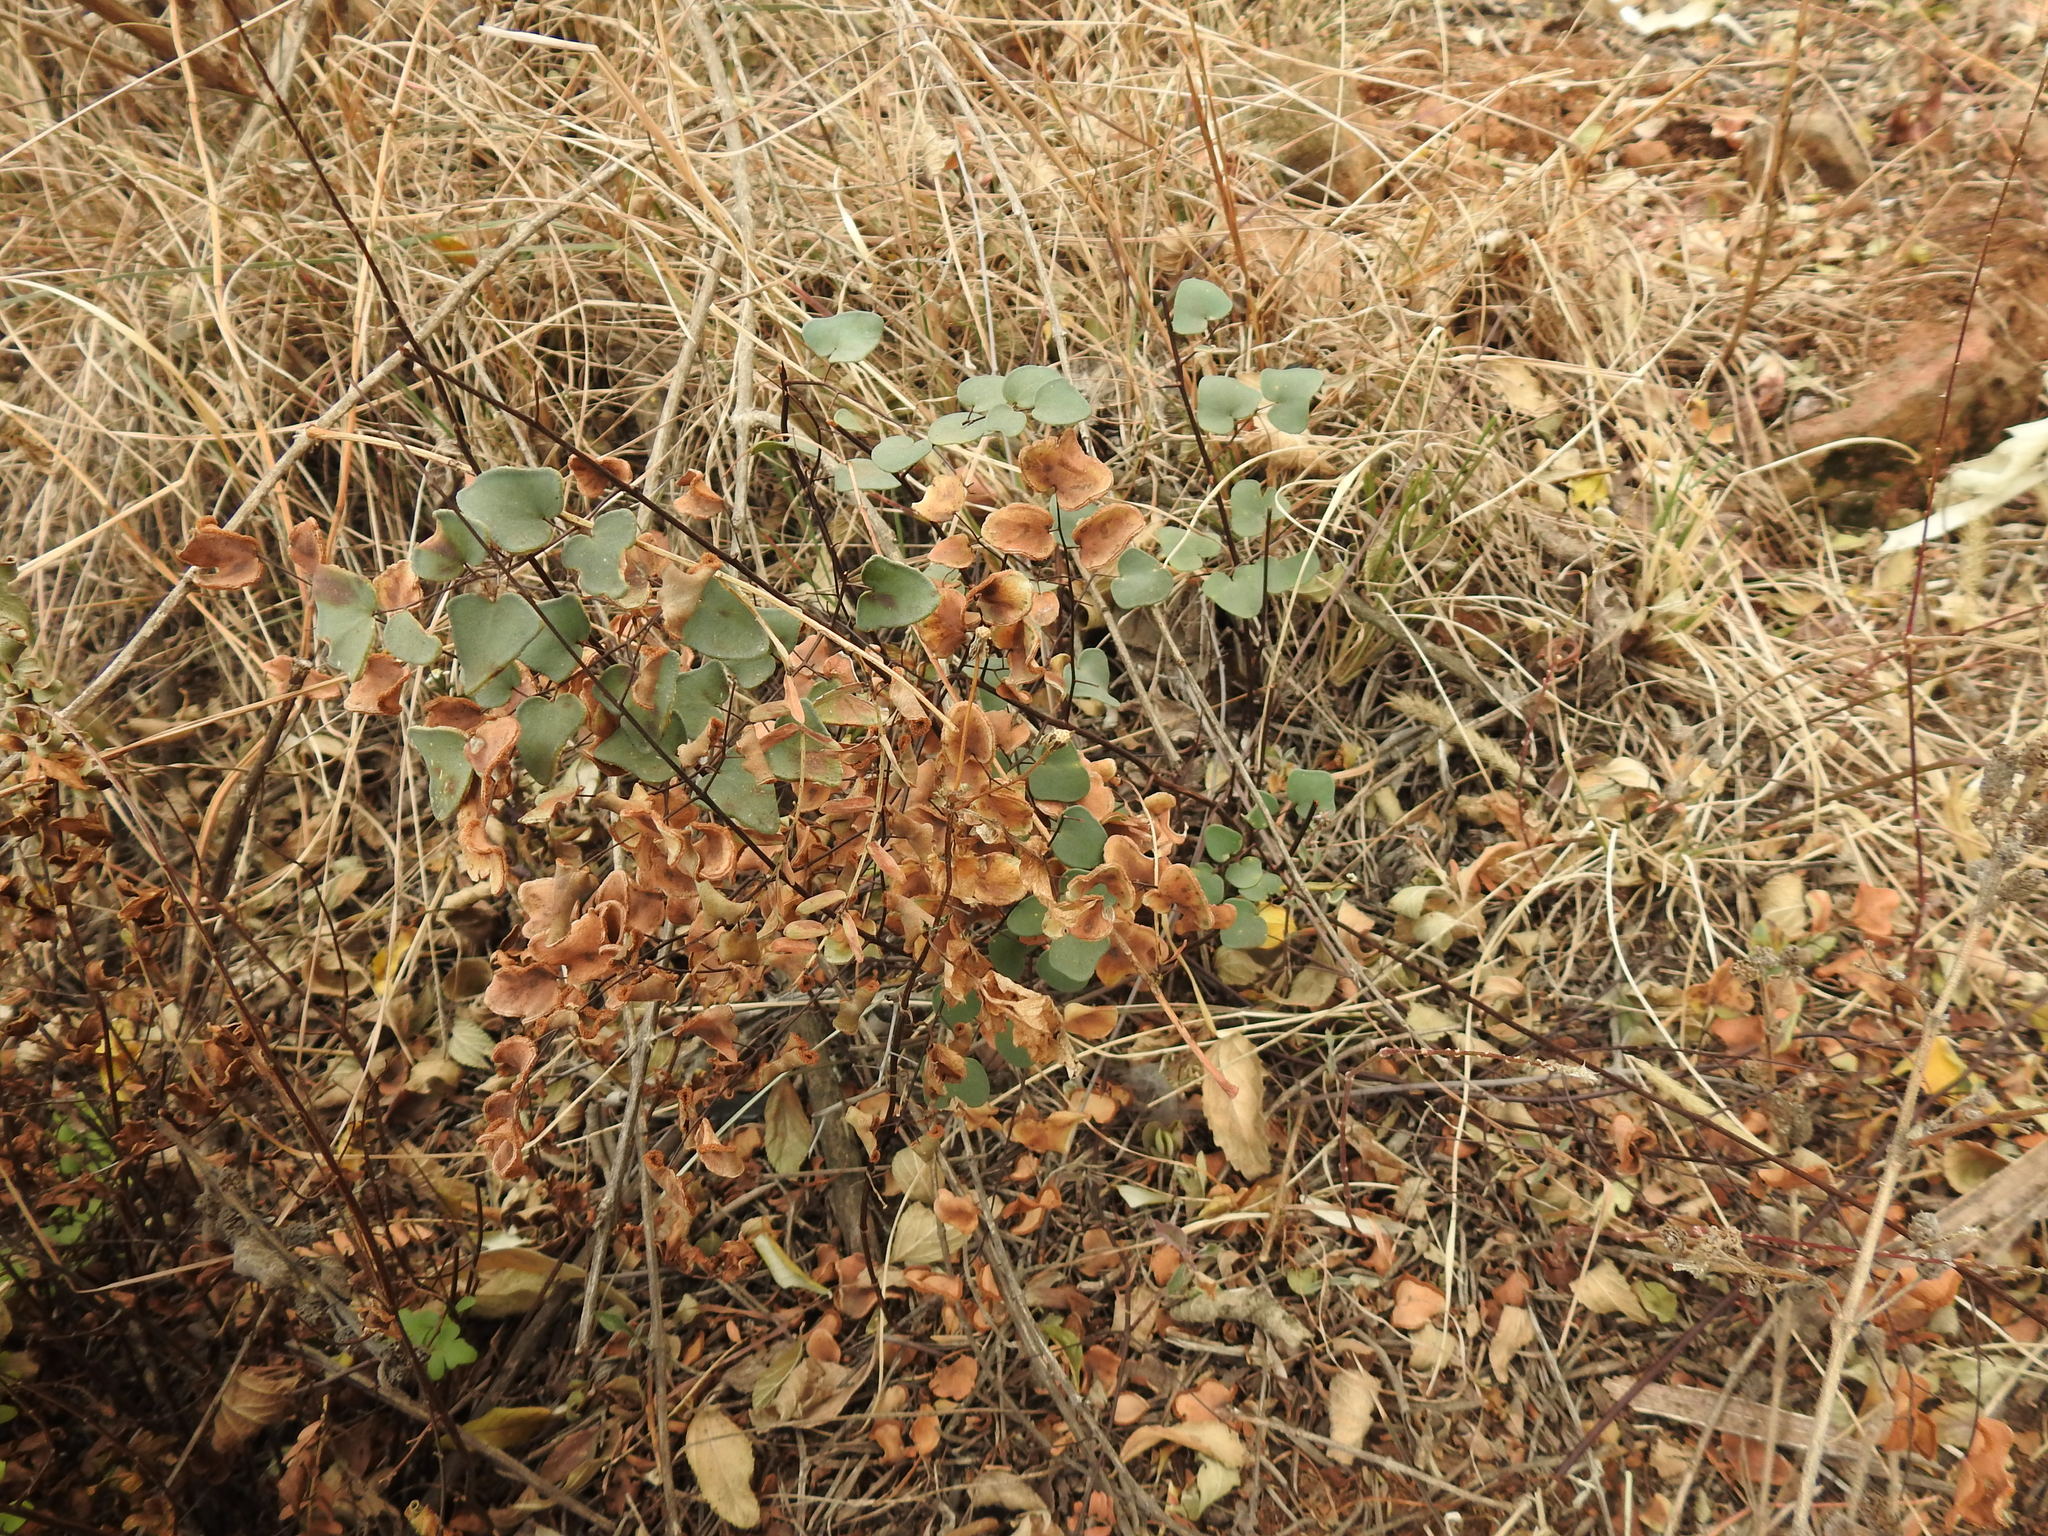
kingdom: Plantae
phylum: Tracheophyta
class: Polypodiopsida
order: Polypodiales
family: Pteridaceae
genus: Pellaea
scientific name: Pellaea calomelanos
